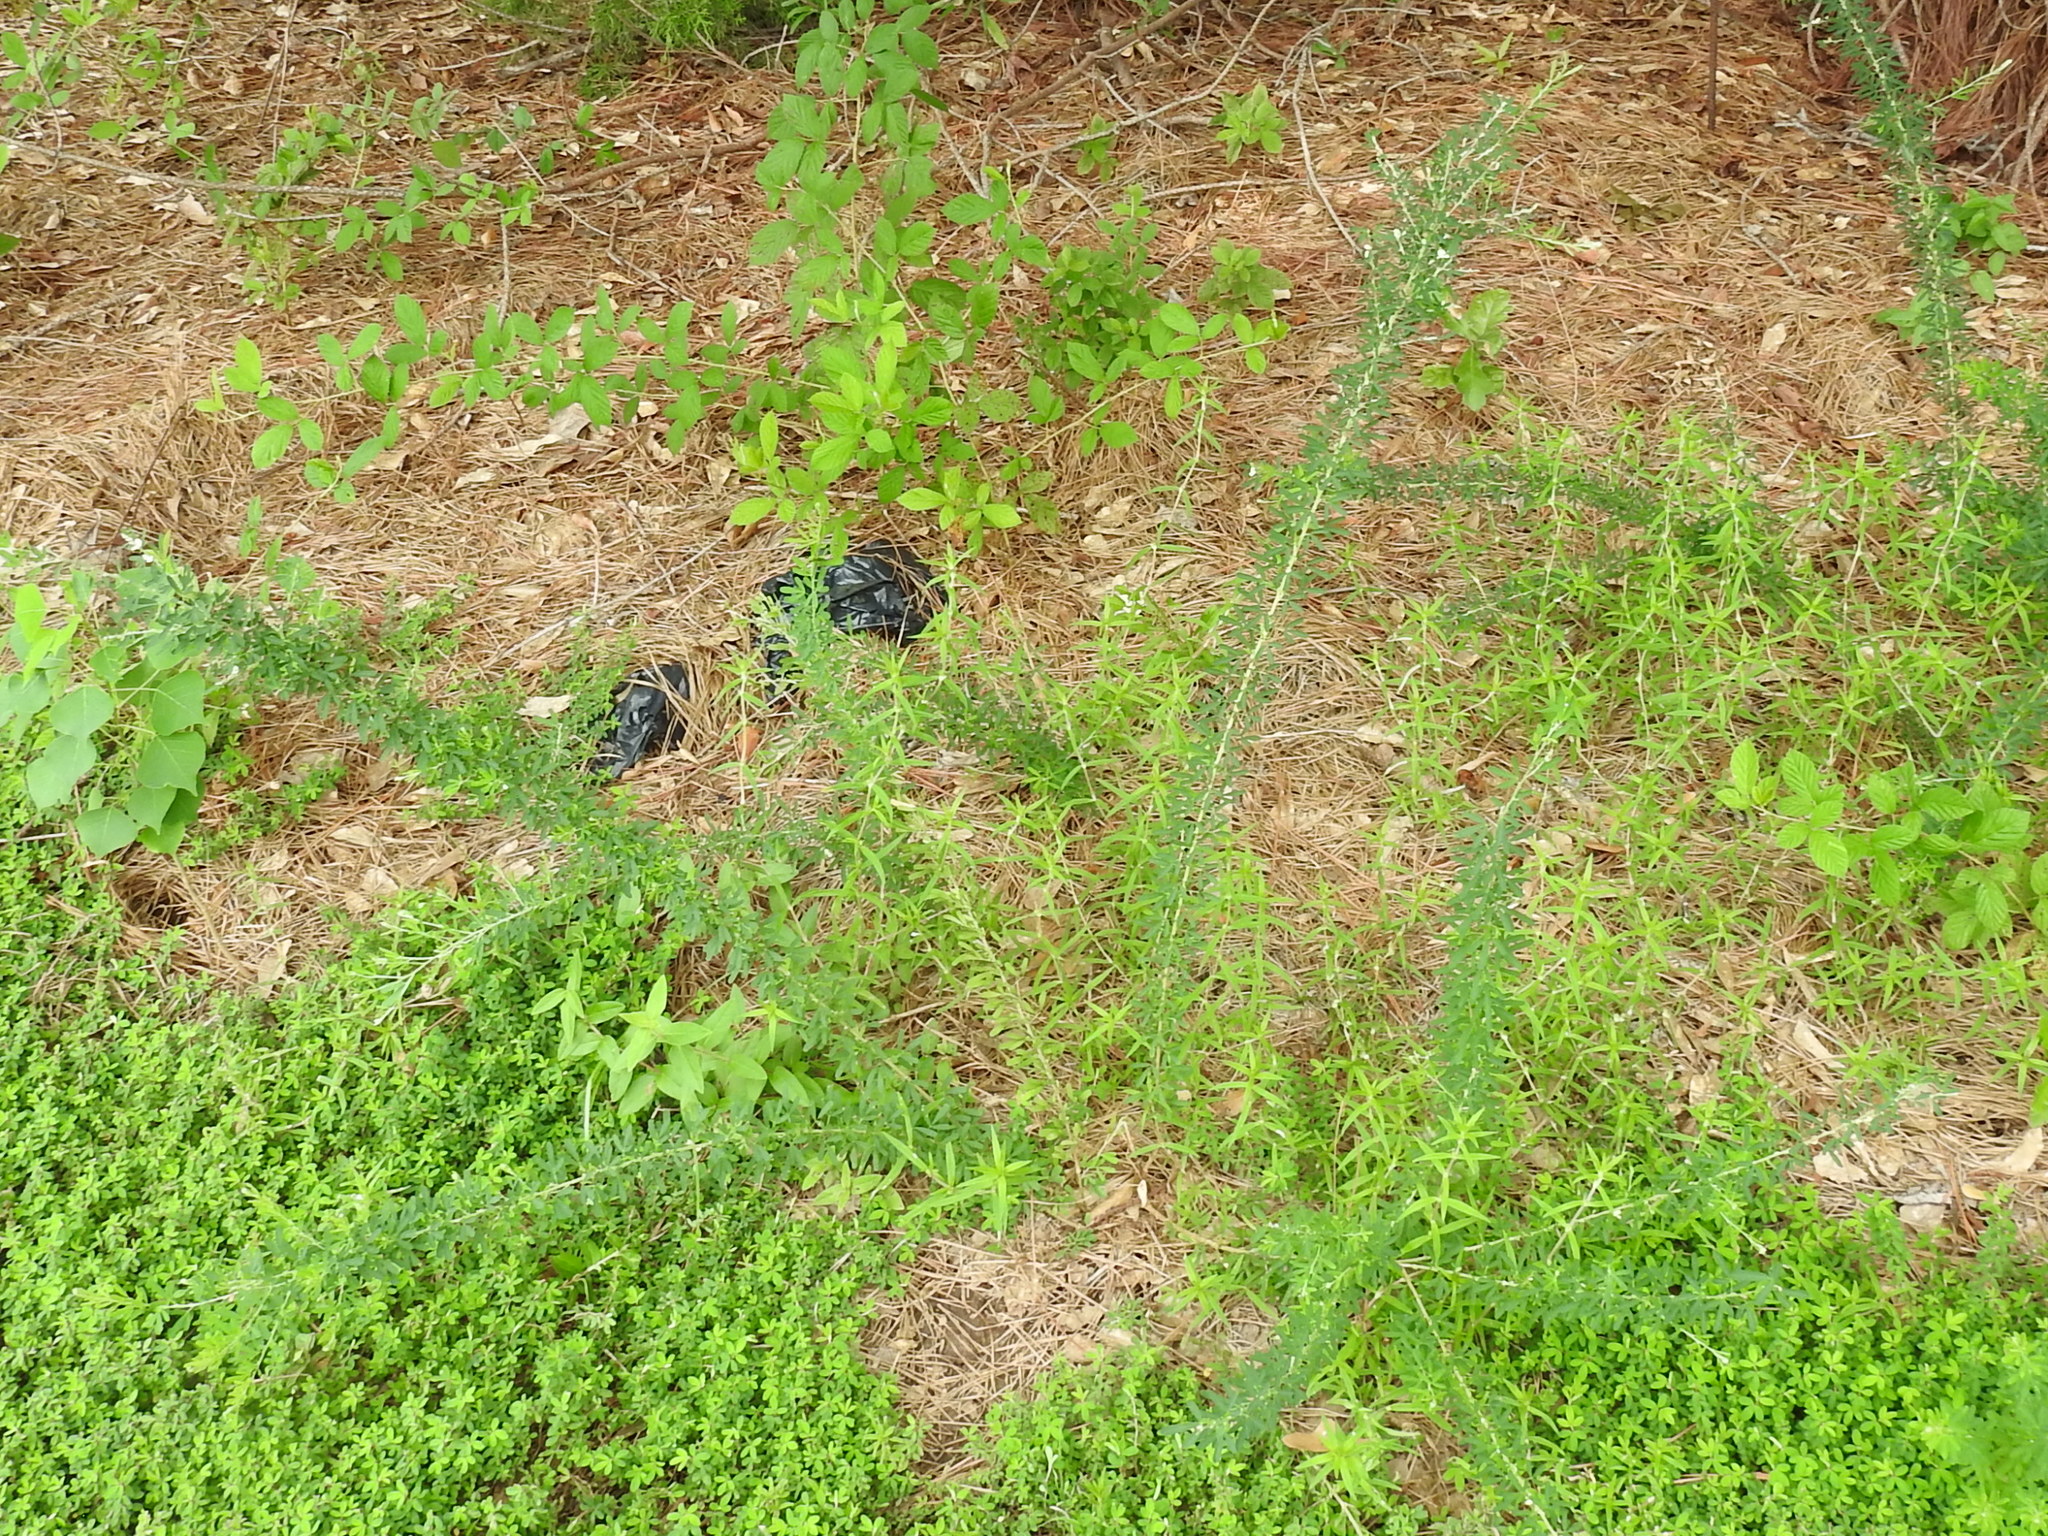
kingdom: Plantae
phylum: Tracheophyta
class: Magnoliopsida
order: Fabales
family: Fabaceae
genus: Lespedeza
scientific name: Lespedeza cuneata
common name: Chinese bush-clover
